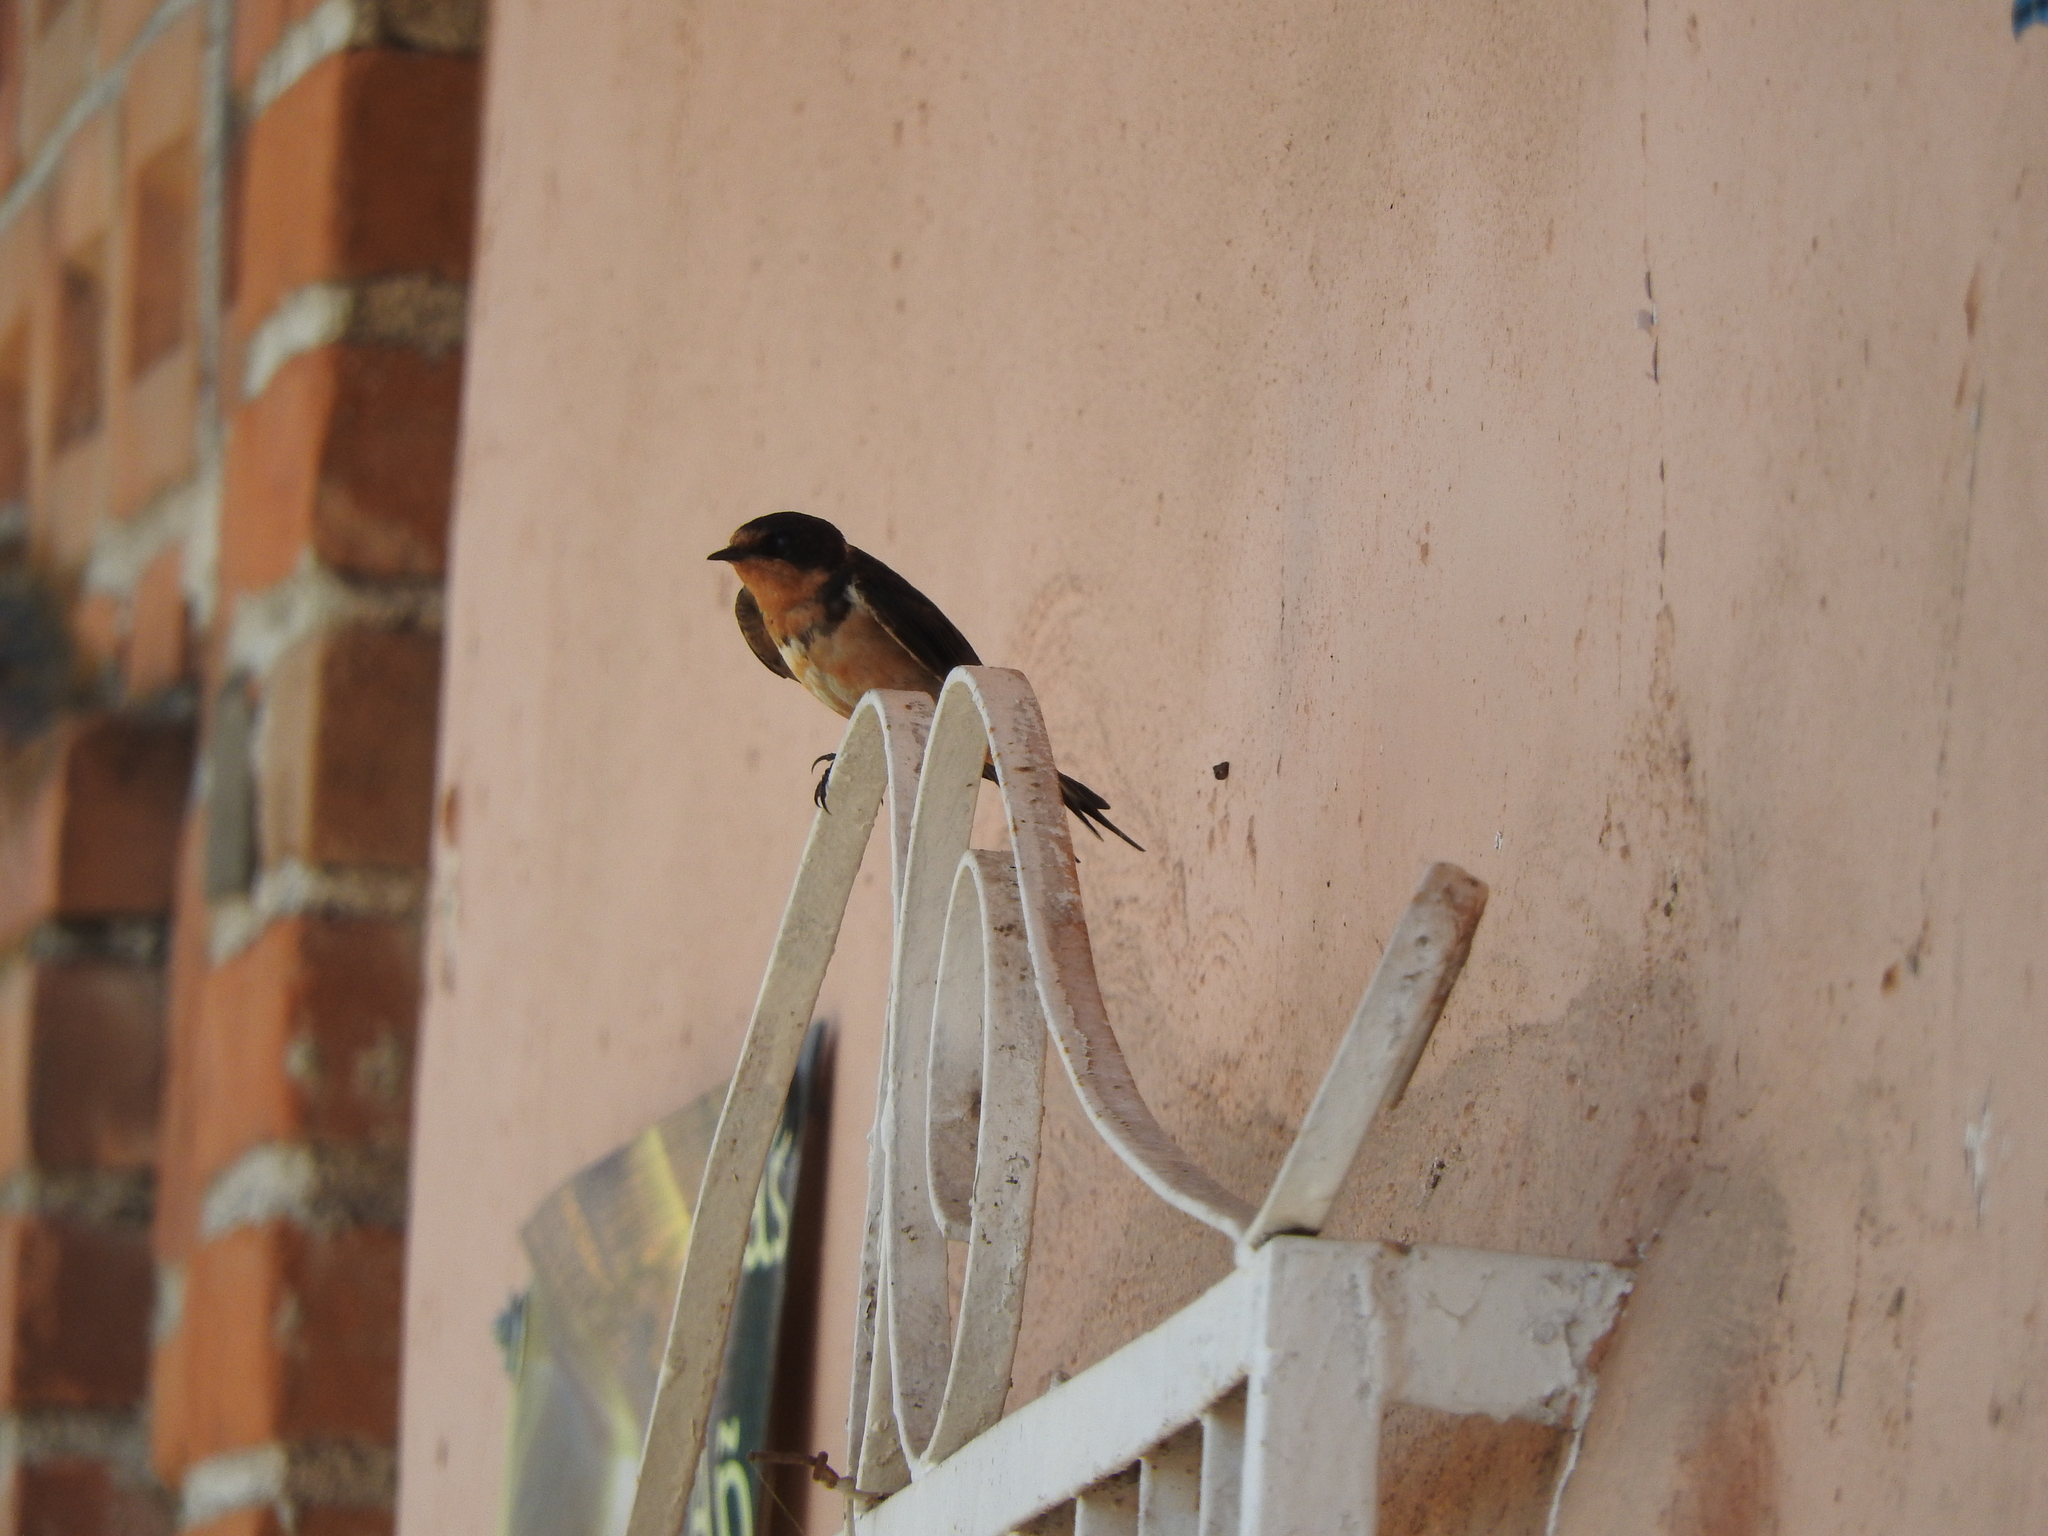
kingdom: Animalia
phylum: Chordata
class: Aves
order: Passeriformes
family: Hirundinidae
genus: Hirundo
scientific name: Hirundo rustica
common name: Barn swallow
